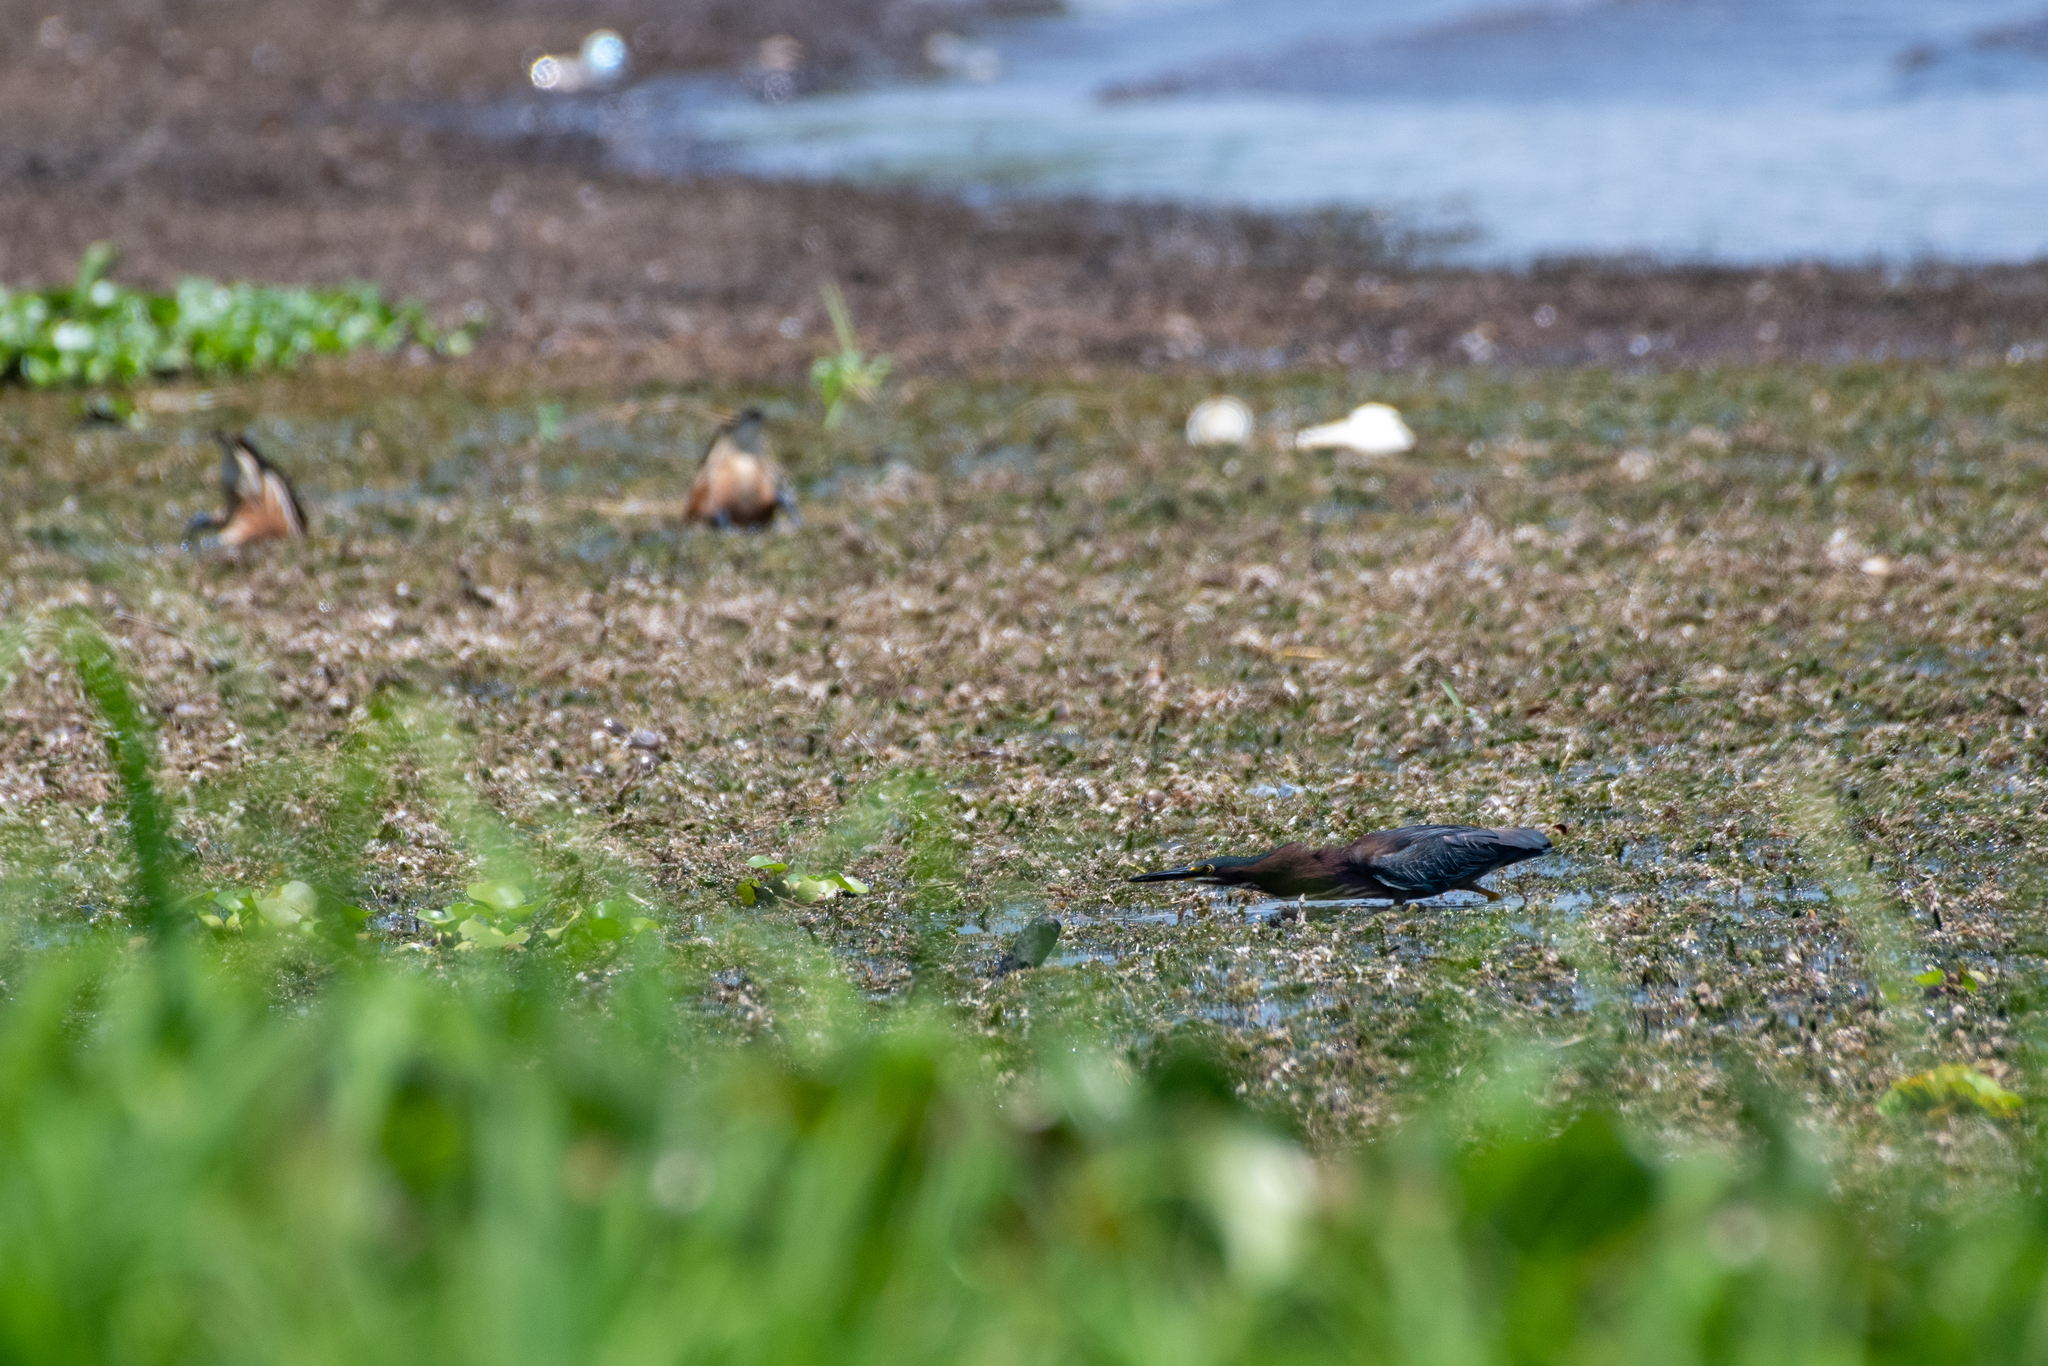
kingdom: Animalia
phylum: Chordata
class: Aves
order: Pelecaniformes
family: Ardeidae
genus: Butorides
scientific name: Butorides virescens
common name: Green heron
